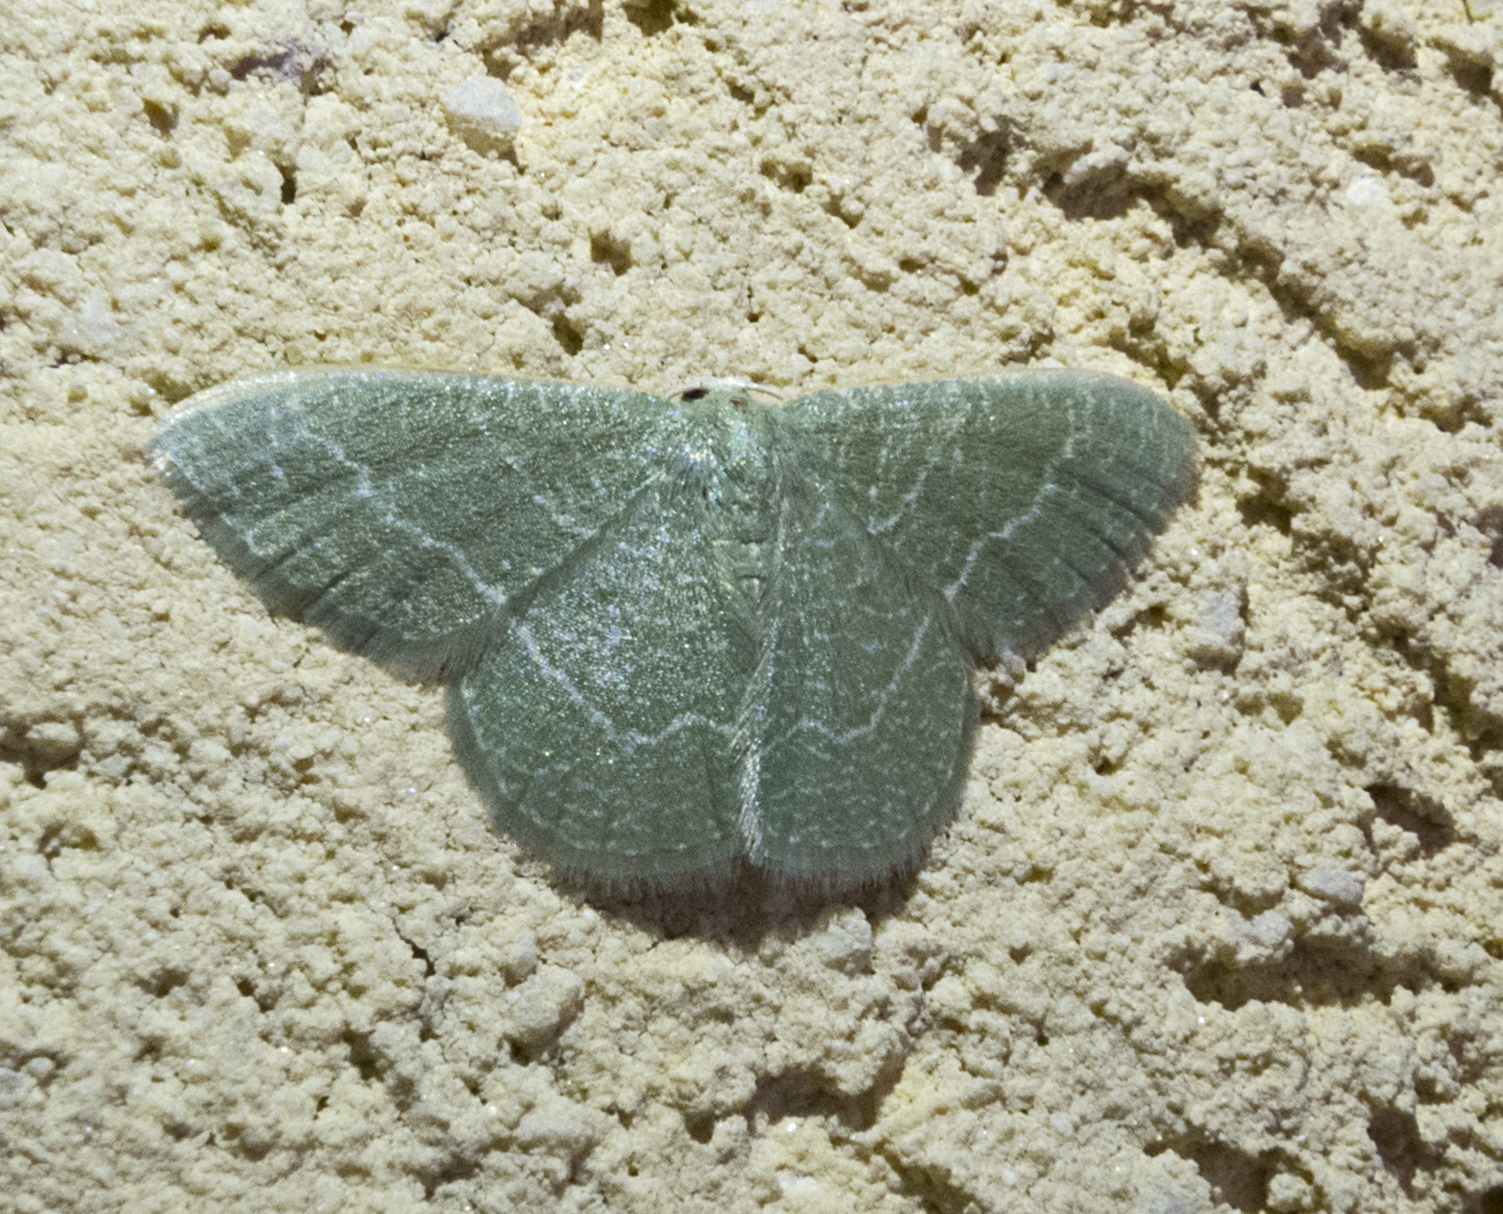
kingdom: Animalia
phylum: Arthropoda
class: Insecta
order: Lepidoptera
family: Geometridae
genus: Chlorissa
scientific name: Chlorissa etruscaria
